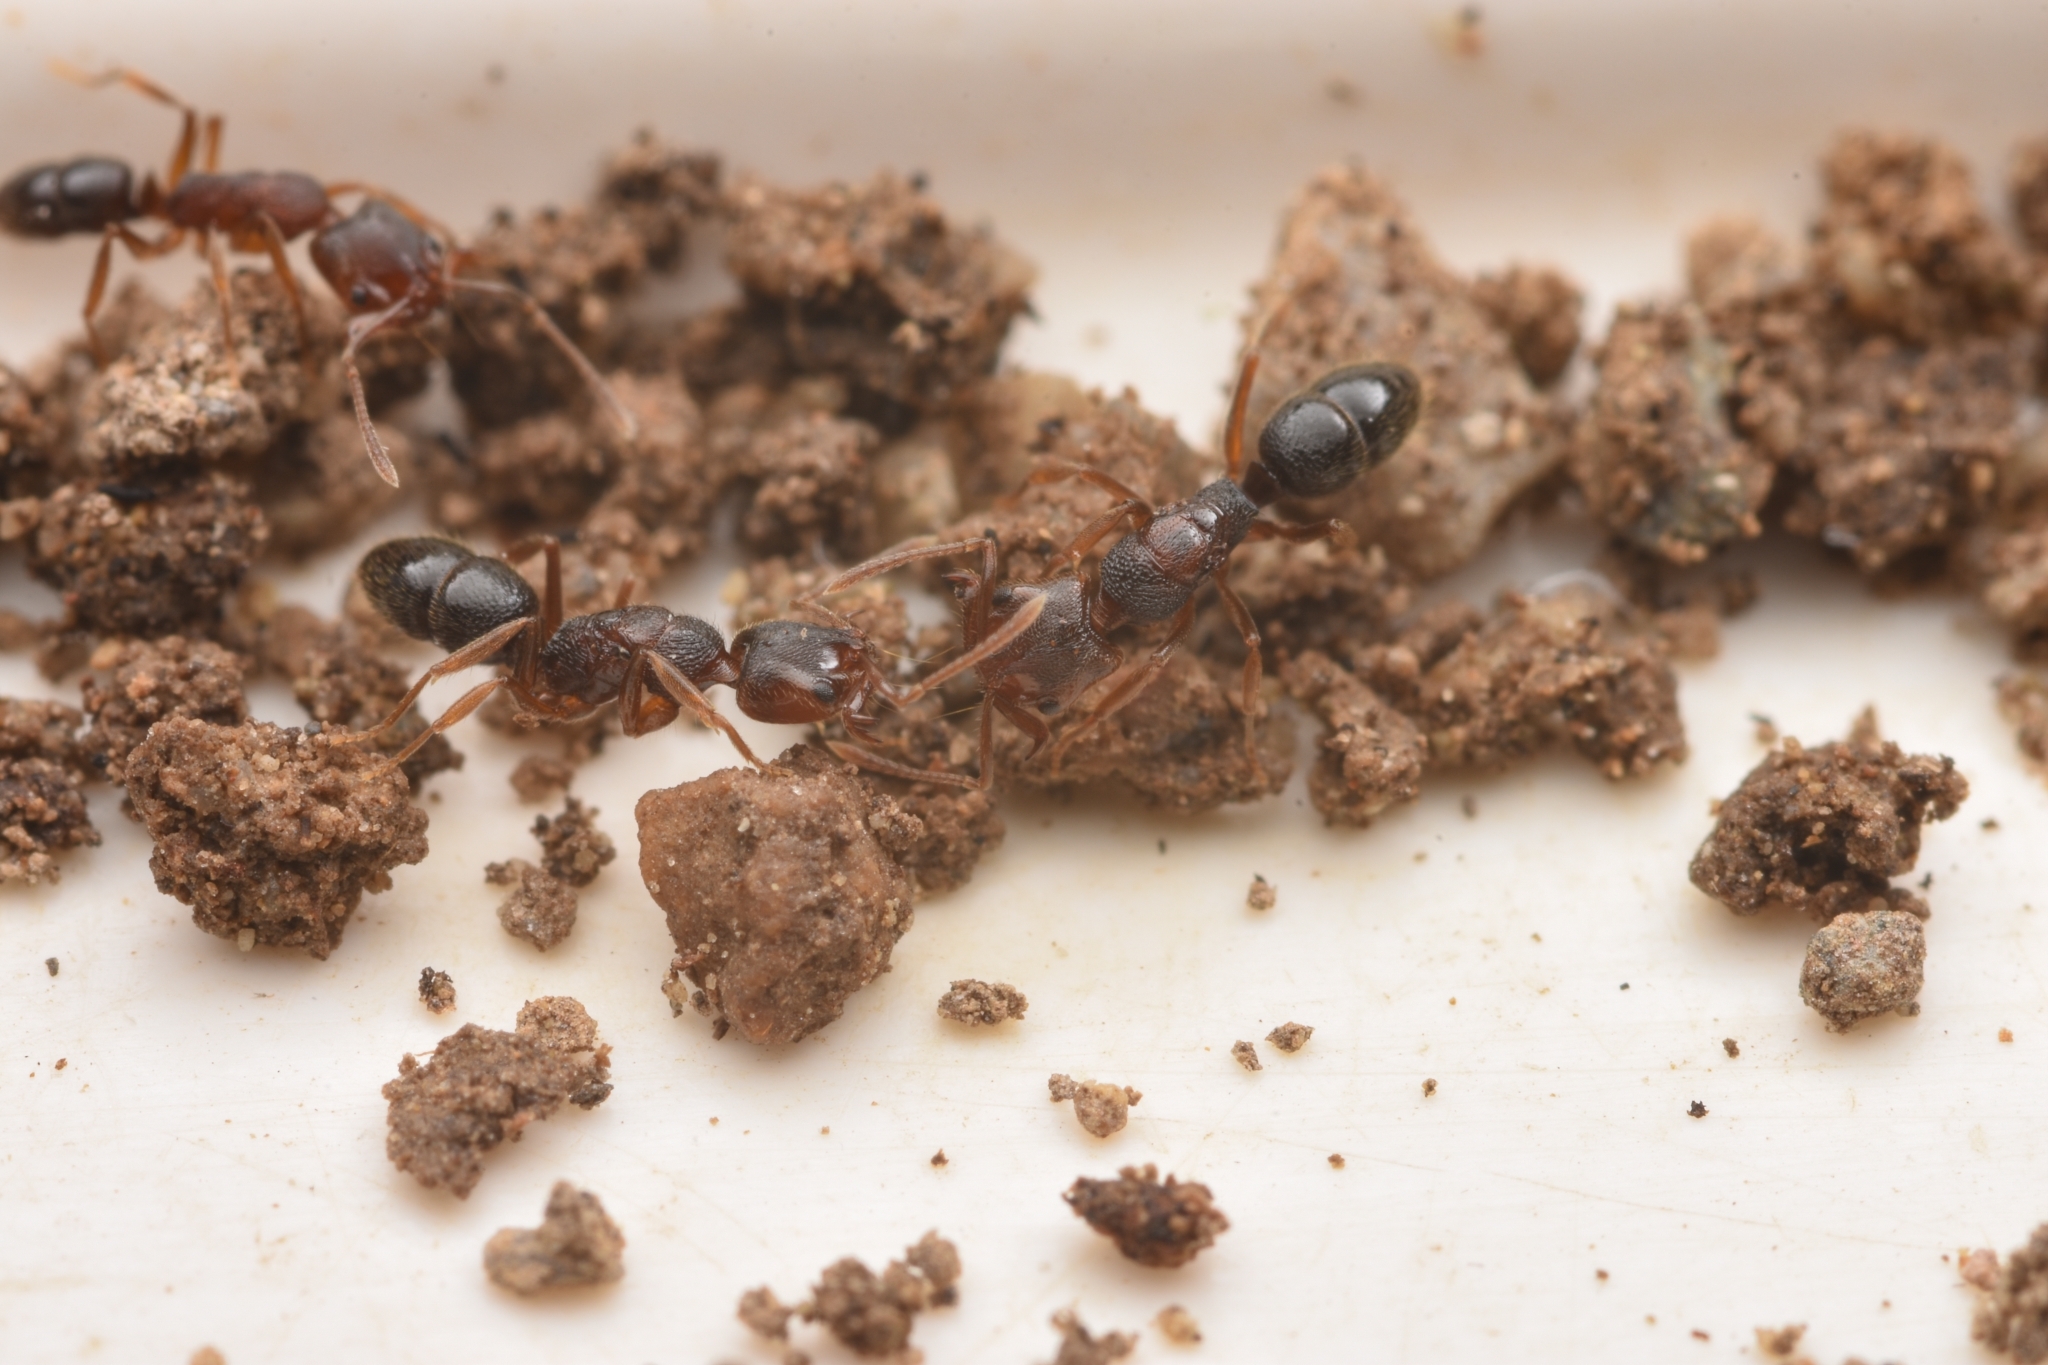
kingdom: Animalia
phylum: Arthropoda
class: Insecta
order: Hymenoptera
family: Formicidae
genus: Anochetus
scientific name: Anochetus
